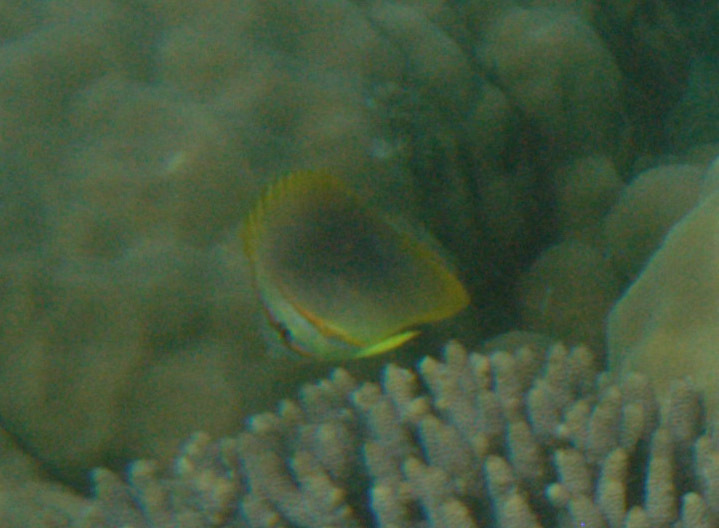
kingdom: Animalia
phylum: Chordata
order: Perciformes
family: Chaetodontidae
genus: Chaetodon
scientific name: Chaetodon aureofasciatus
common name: Golden butterflyfish
